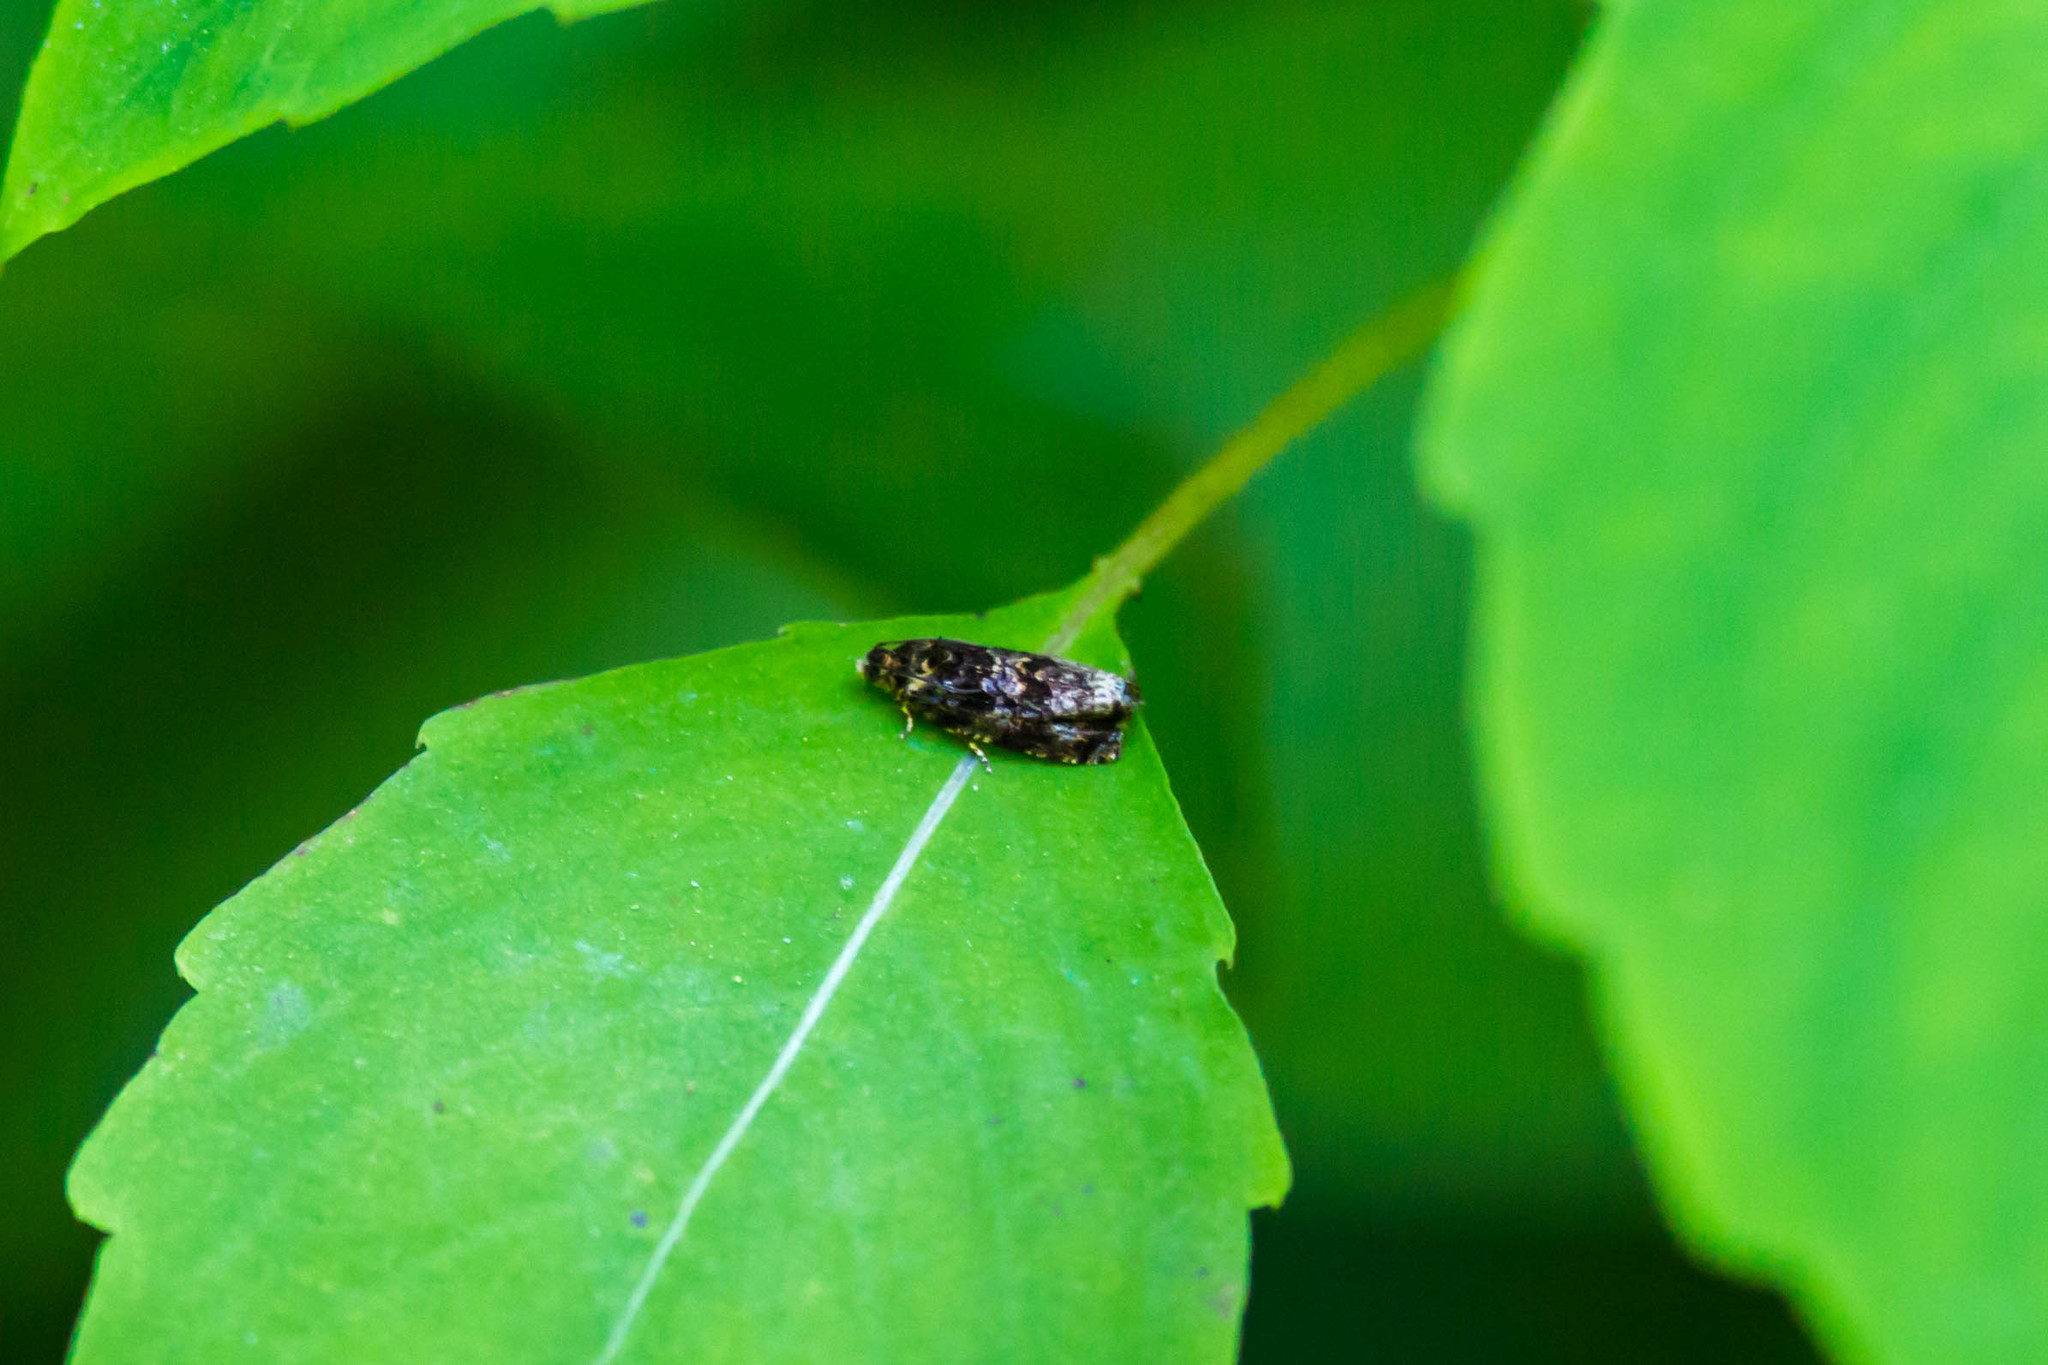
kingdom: Animalia
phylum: Arthropoda
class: Insecta
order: Lepidoptera
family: Tortricidae
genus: Pristerognatha
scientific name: Pristerognatha agilana
